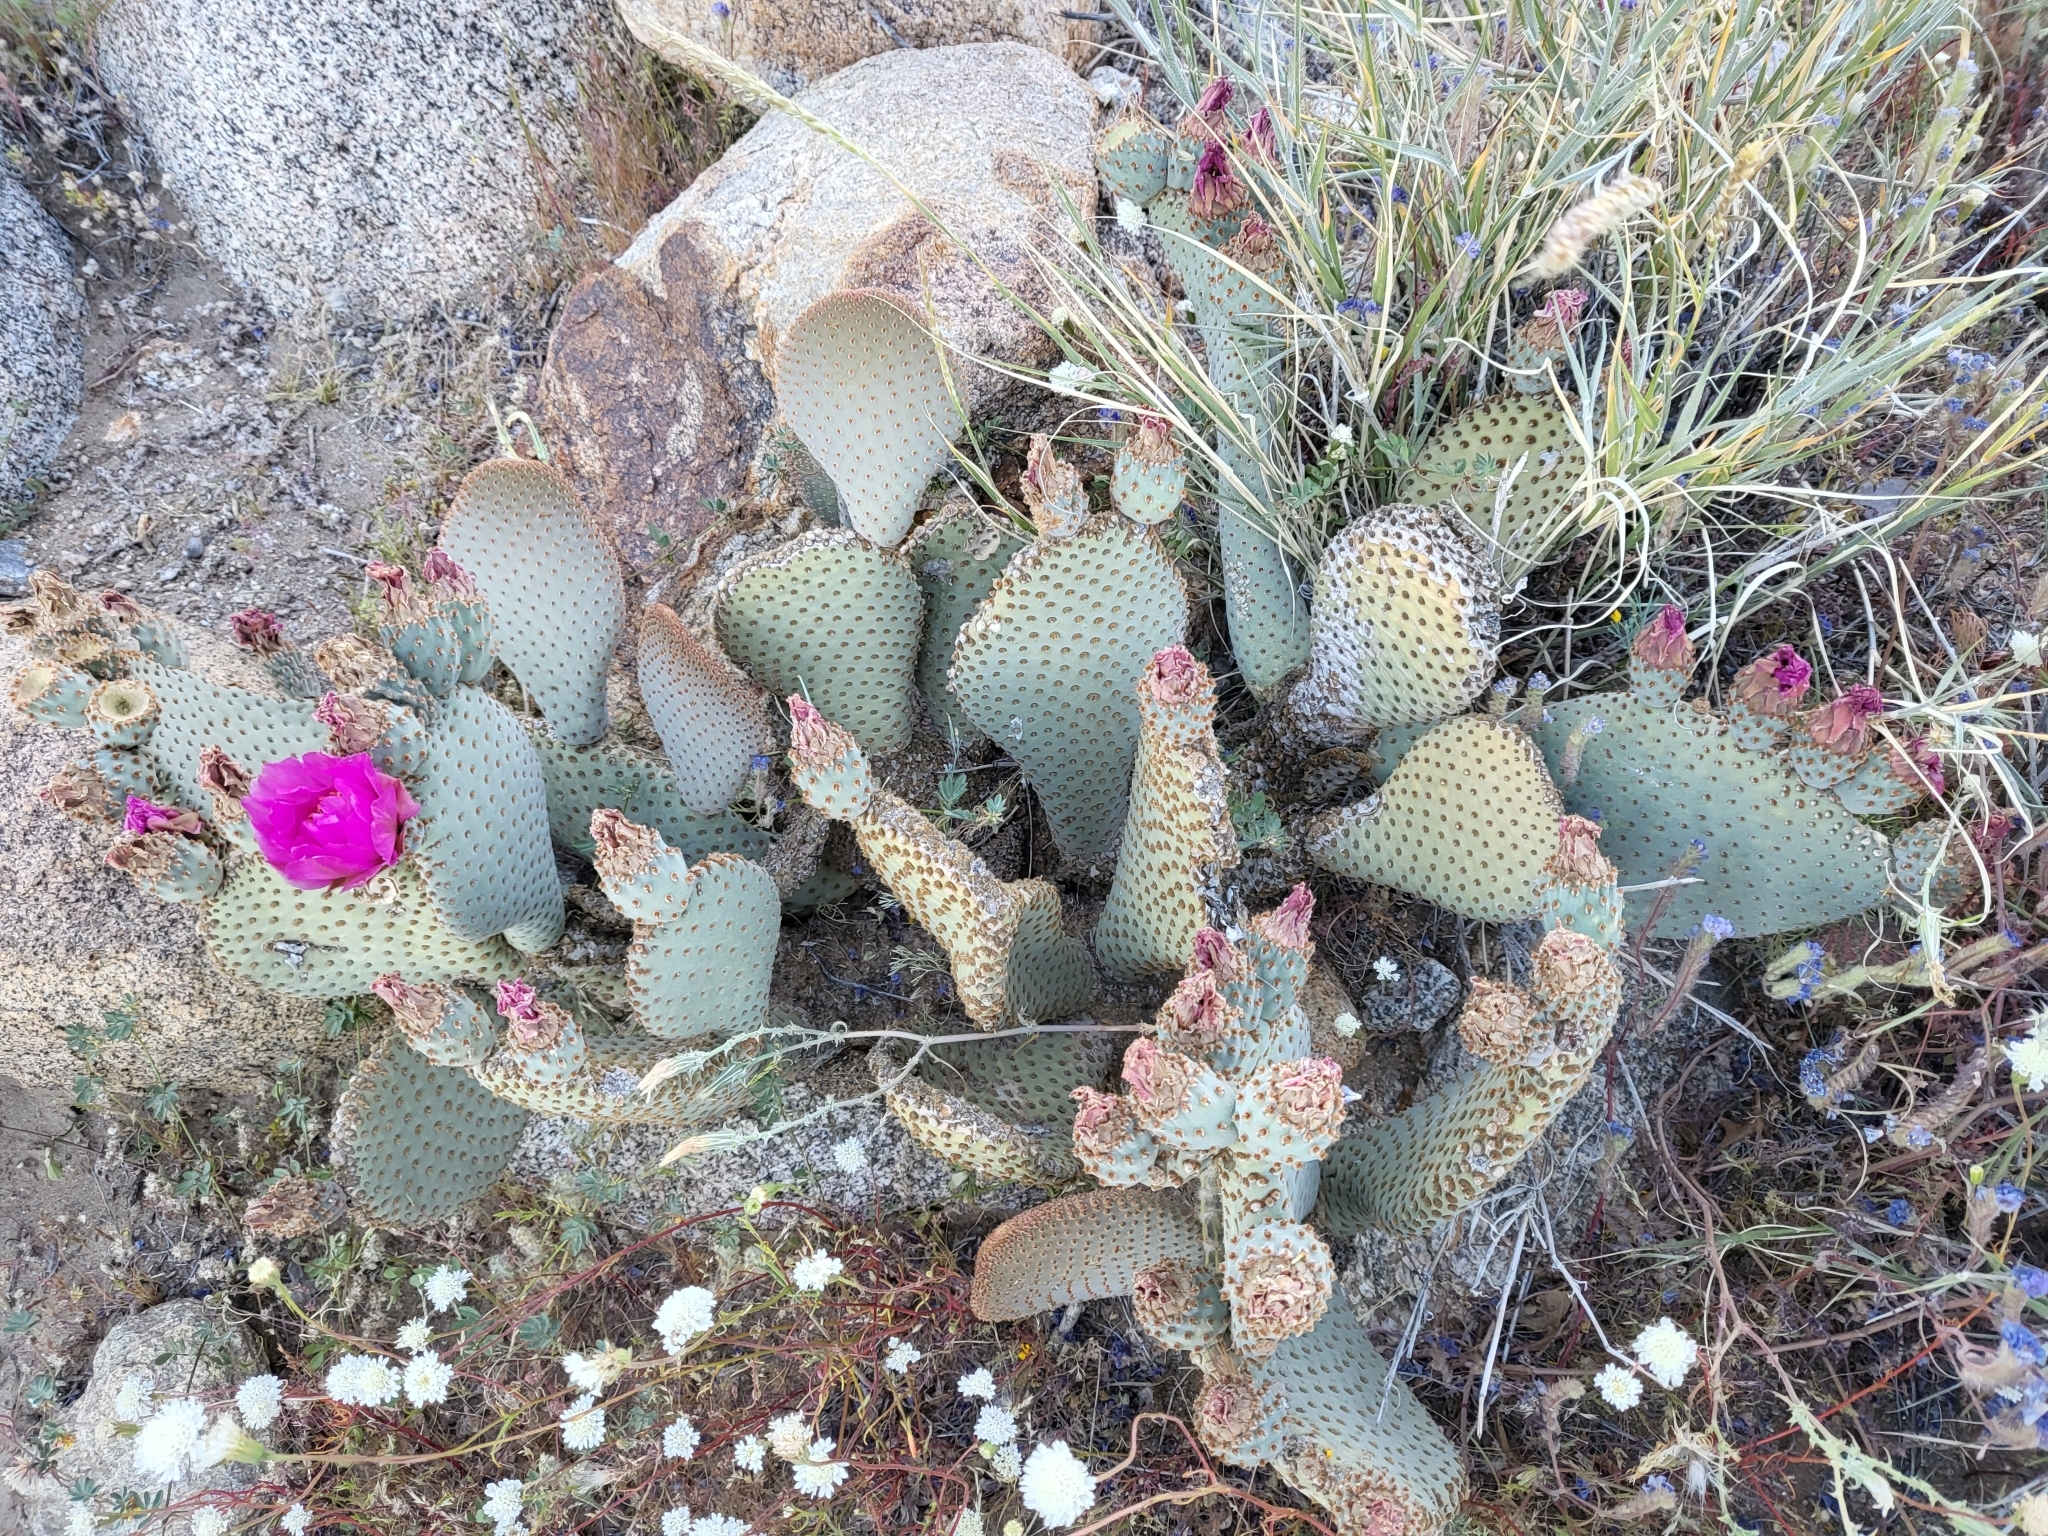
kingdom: Plantae
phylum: Tracheophyta
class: Magnoliopsida
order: Caryophyllales
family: Cactaceae
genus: Opuntia
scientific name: Opuntia basilaris
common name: Beavertail prickly-pear
